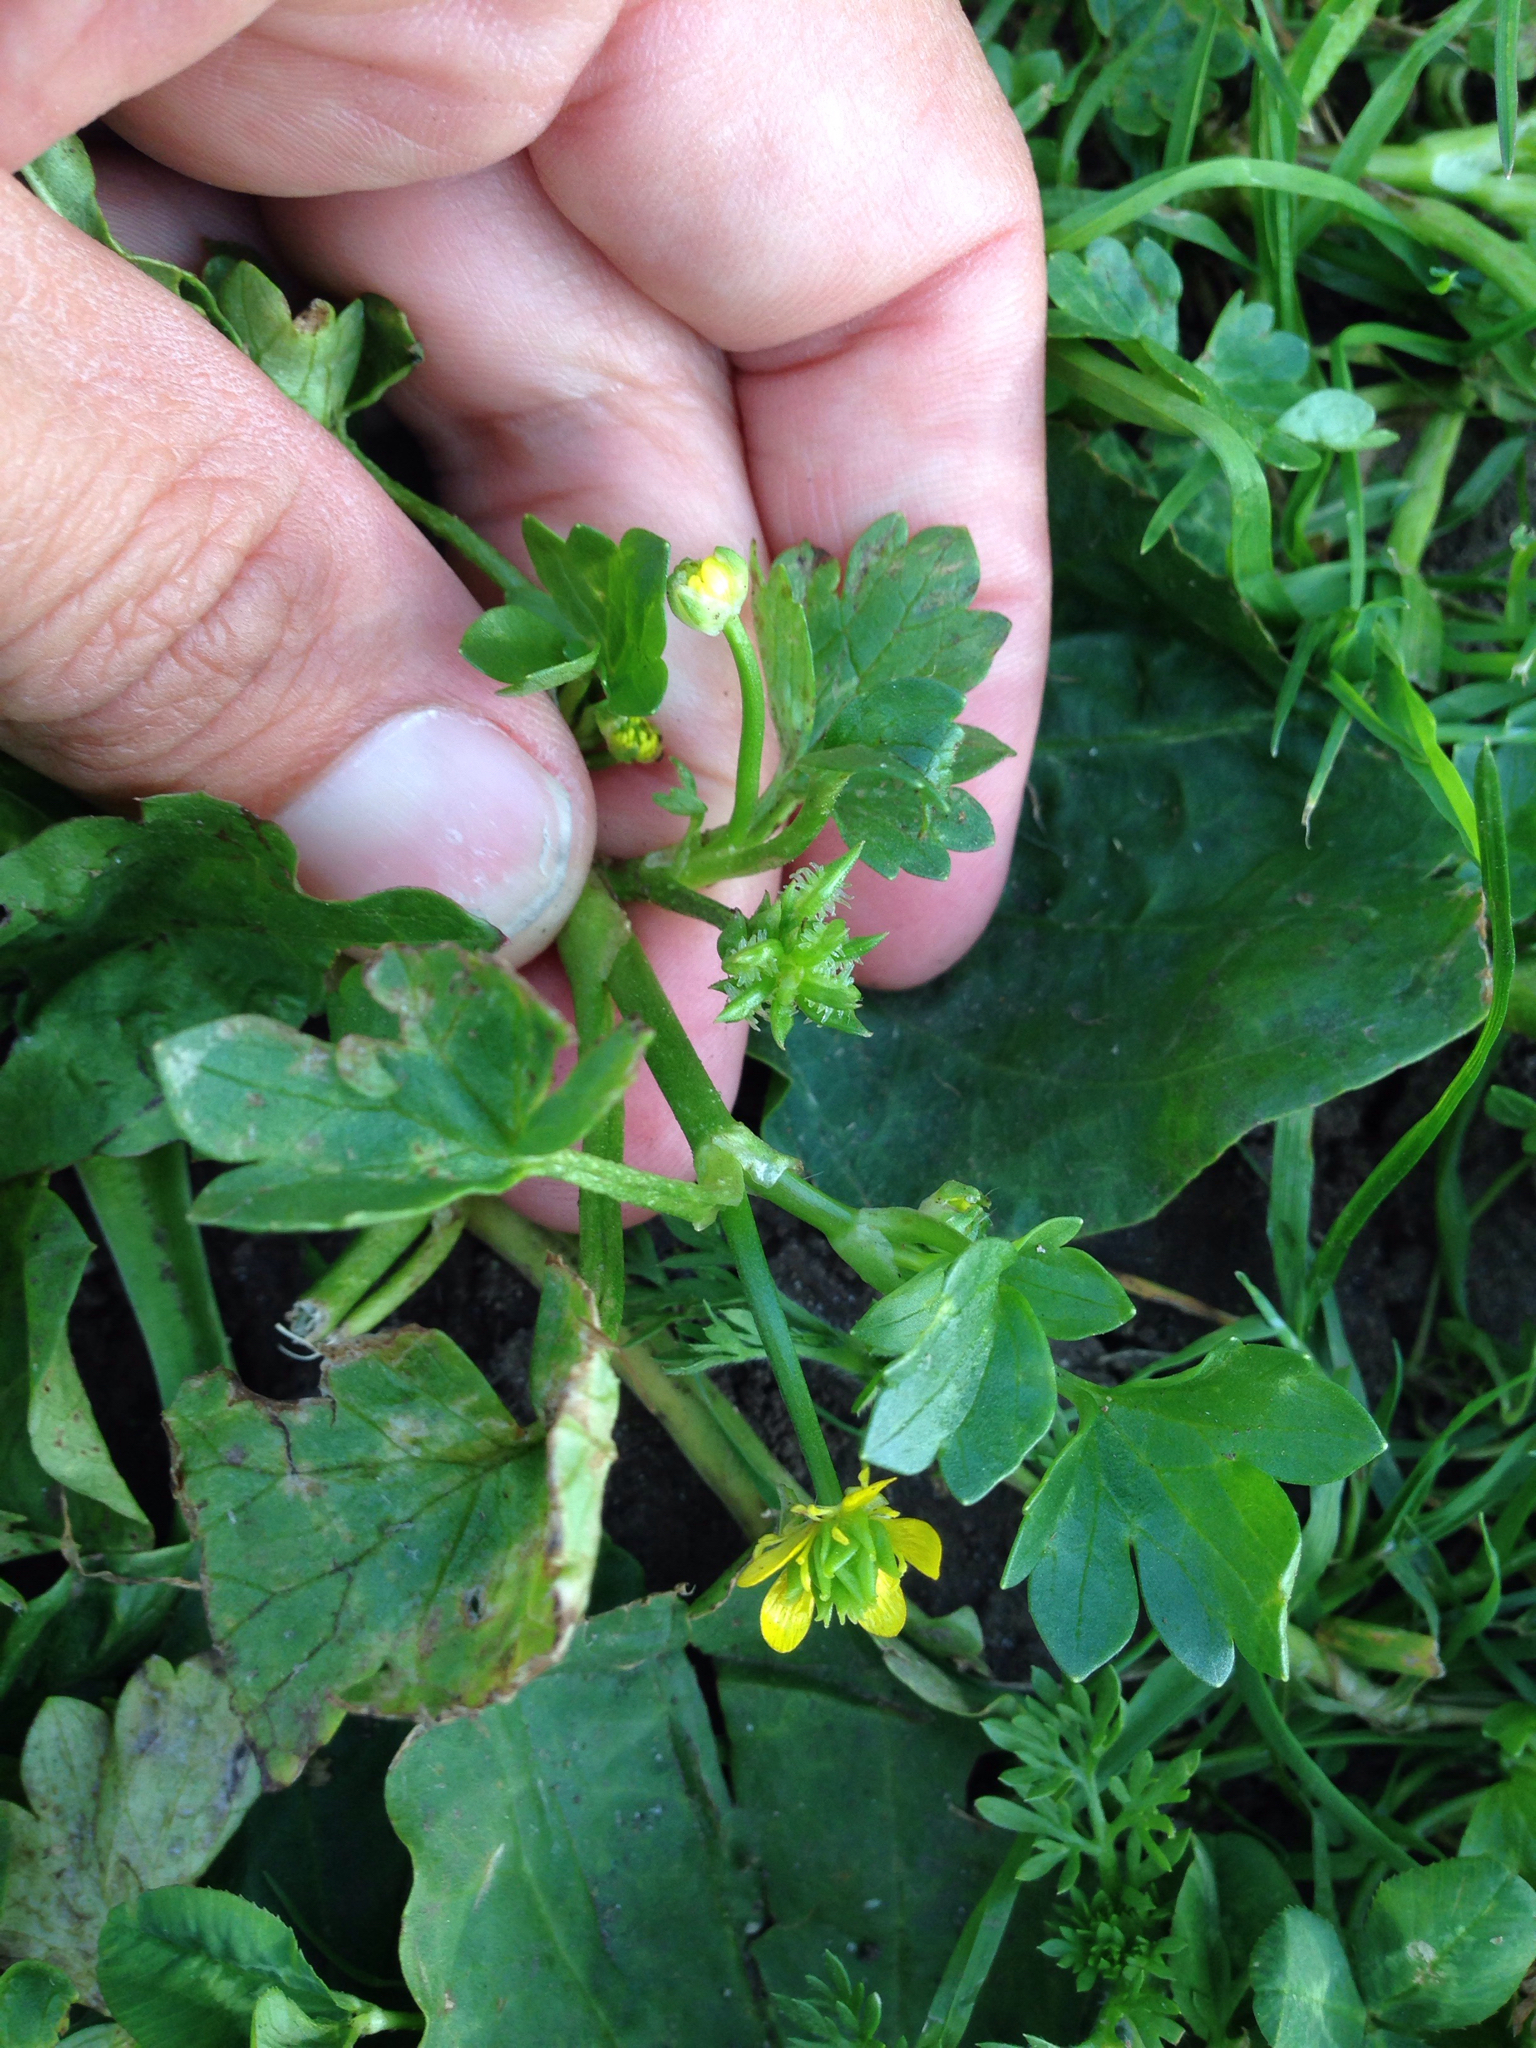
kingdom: Plantae
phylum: Tracheophyta
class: Magnoliopsida
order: Ranunculales
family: Ranunculaceae
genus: Ranunculus
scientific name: Ranunculus muricatus
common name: Rough-fruited buttercup
